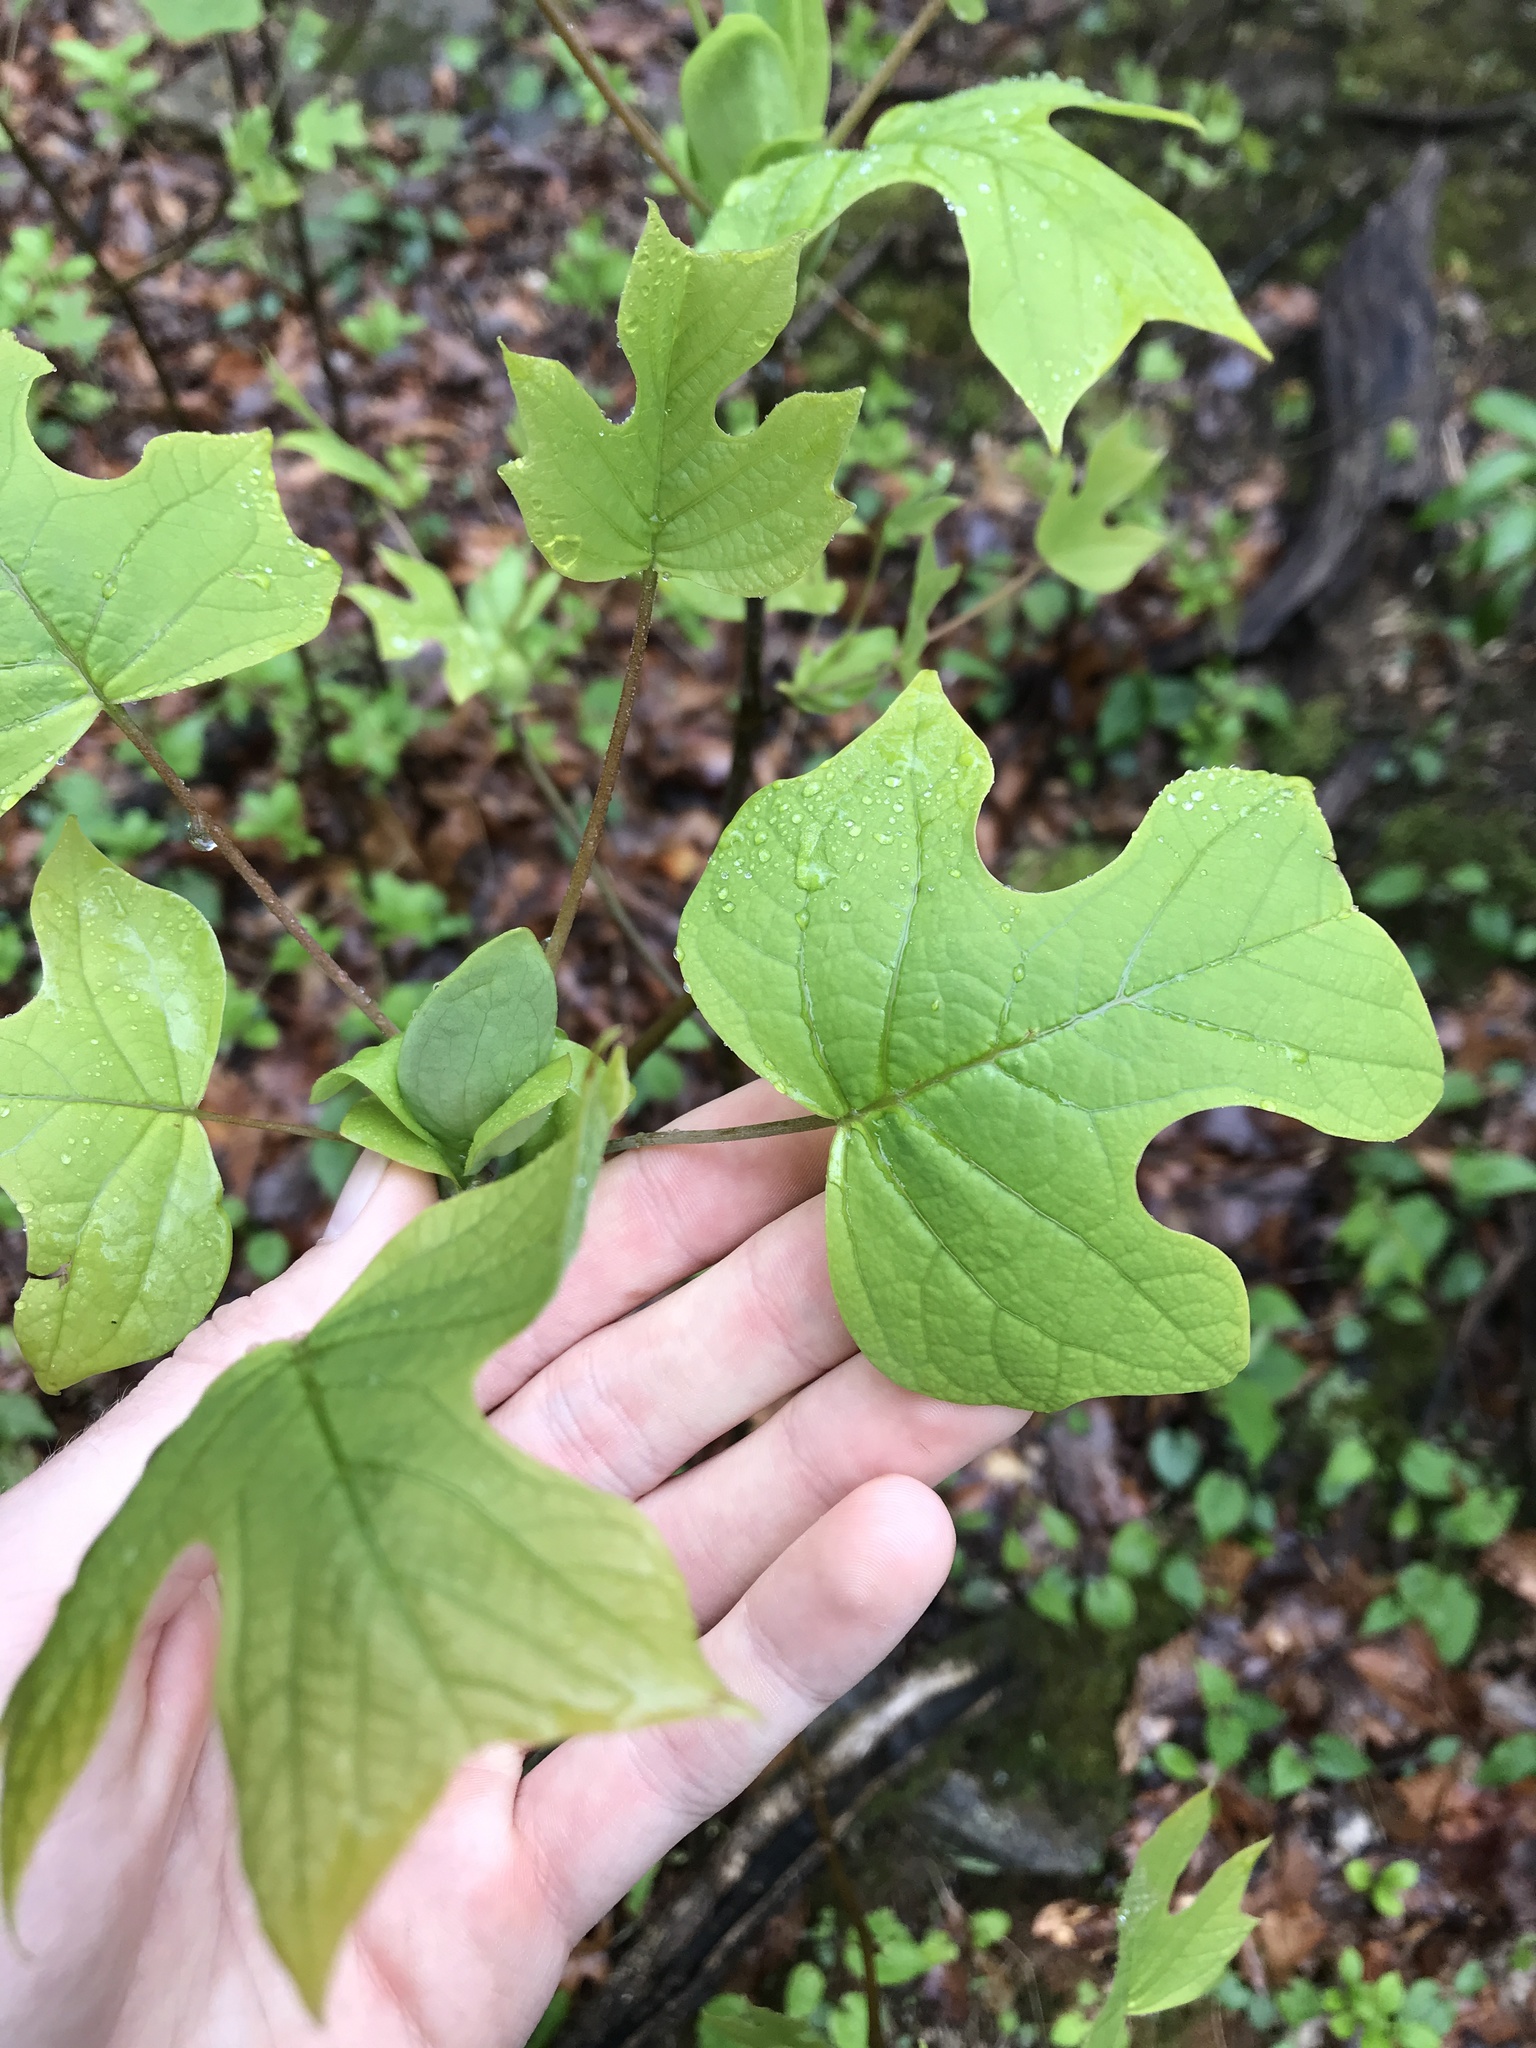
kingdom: Plantae
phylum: Tracheophyta
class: Magnoliopsida
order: Magnoliales
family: Magnoliaceae
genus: Liriodendron
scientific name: Liriodendron tulipifera
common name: Tulip tree
